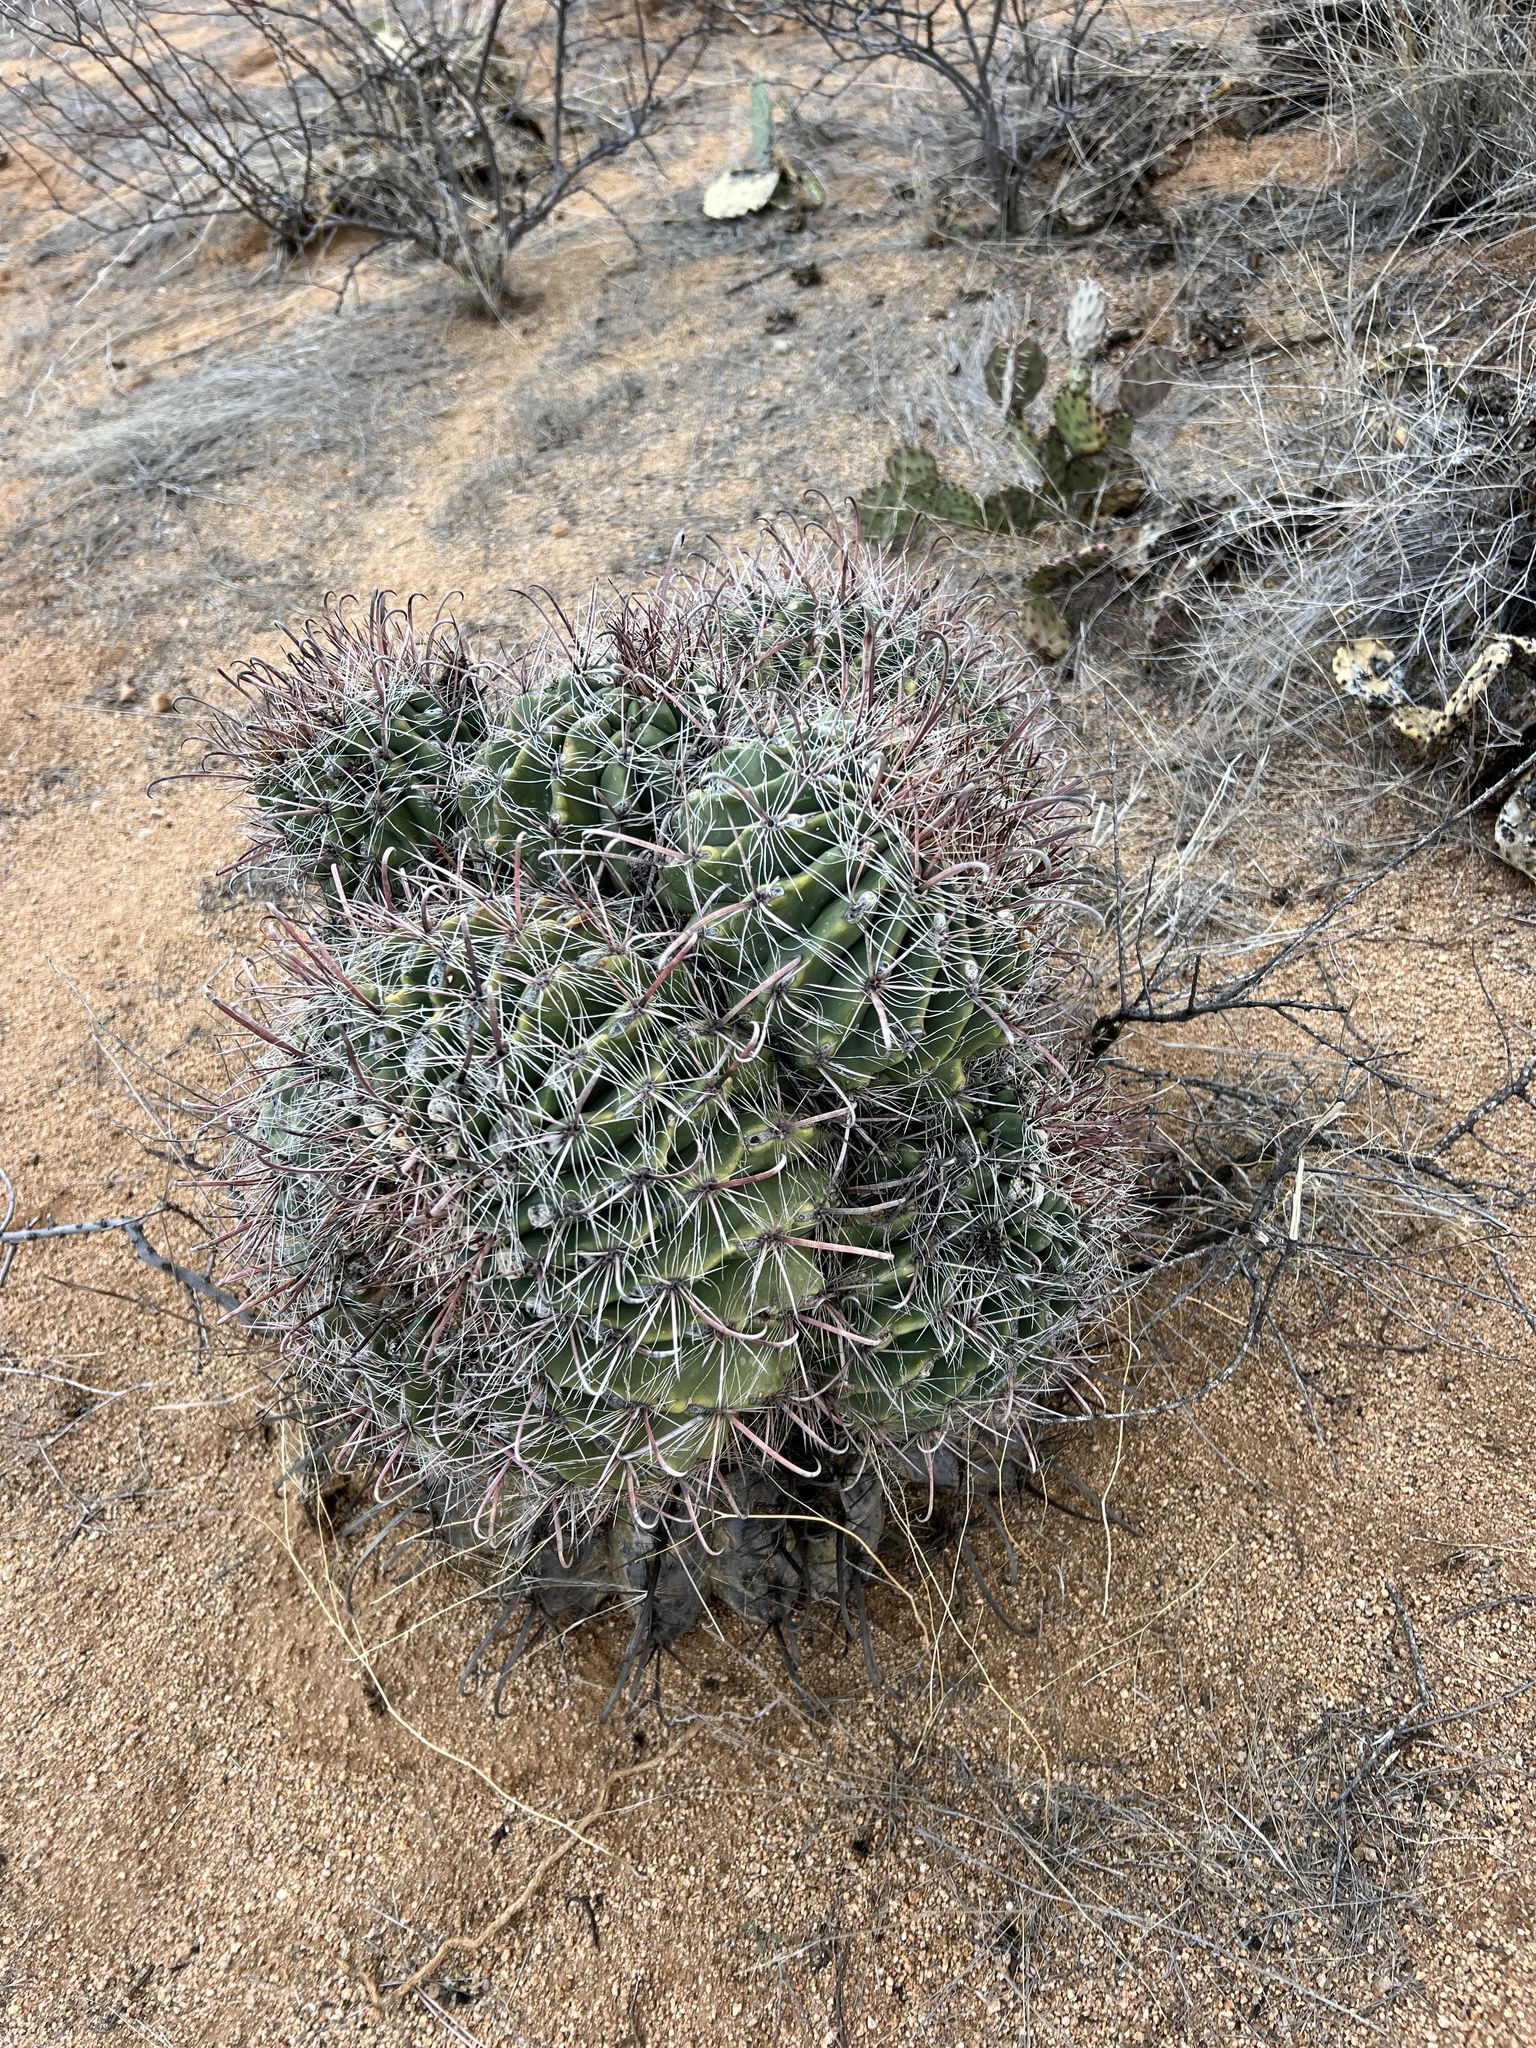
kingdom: Plantae
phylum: Tracheophyta
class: Magnoliopsida
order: Caryophyllales
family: Cactaceae
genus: Ferocactus
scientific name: Ferocactus wislizeni
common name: Candy barrel cactus
